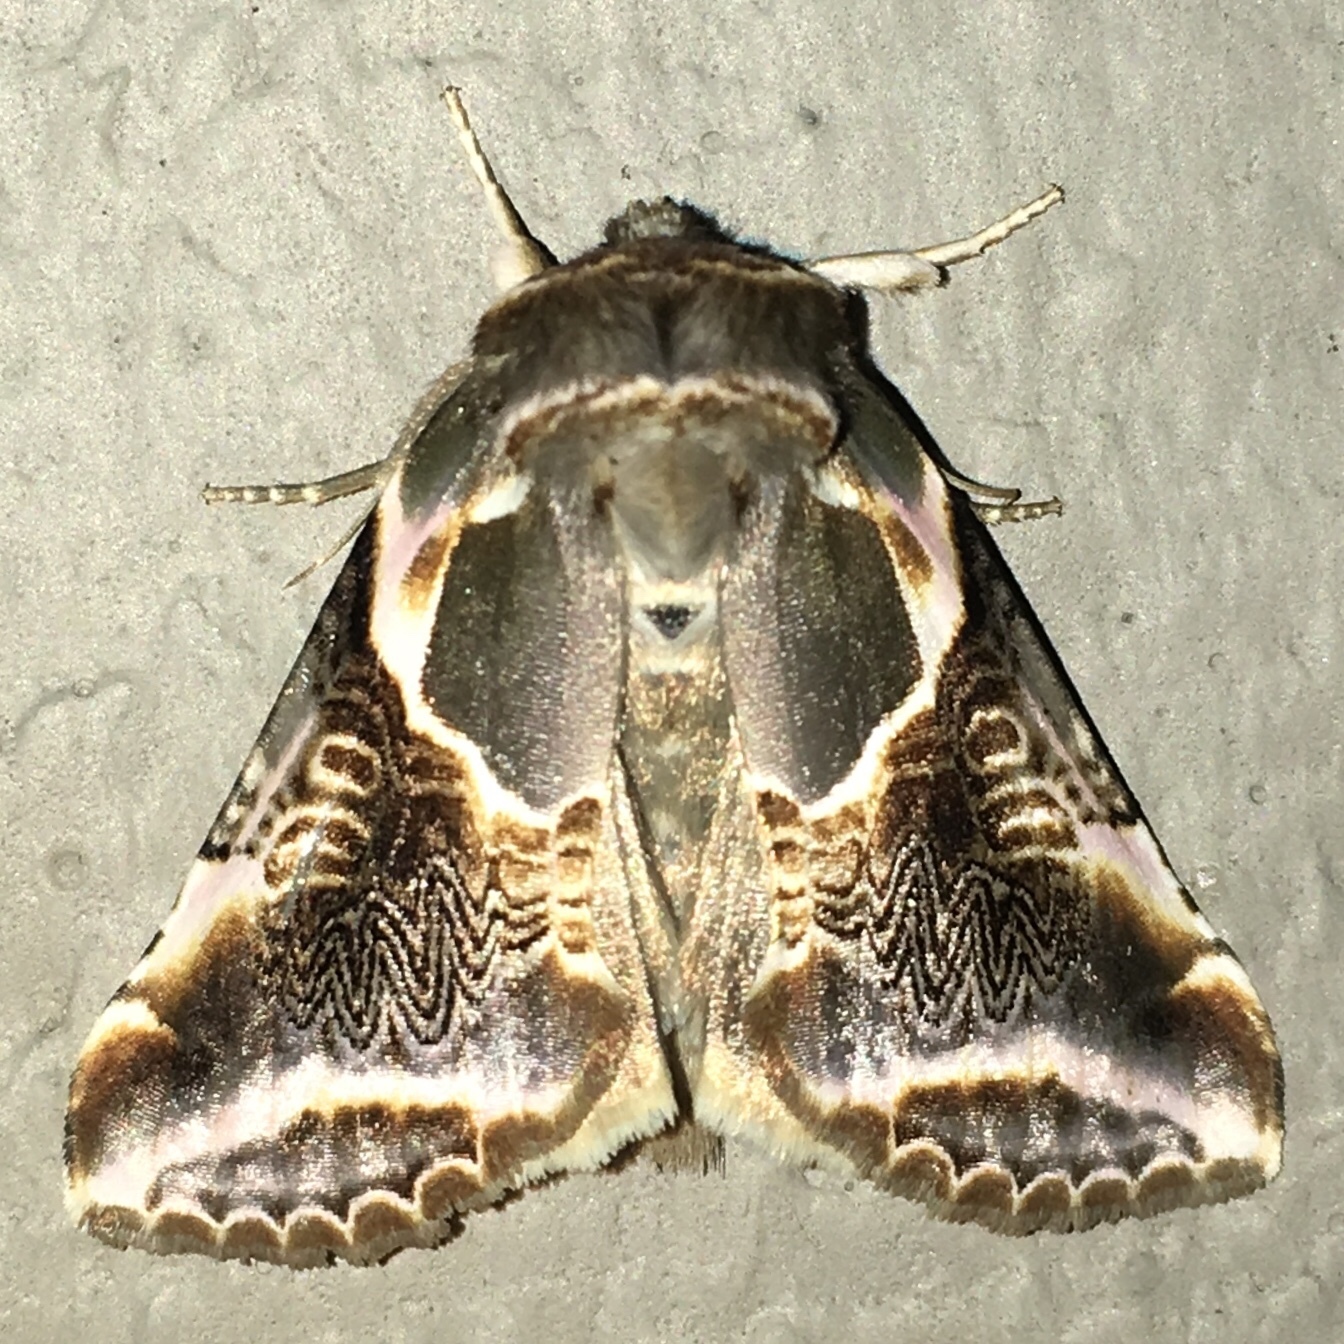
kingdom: Animalia
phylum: Arthropoda
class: Insecta
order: Lepidoptera
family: Drepanidae
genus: Habrosyne
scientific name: Habrosyne scripta
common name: Lettered habrosyne moth
